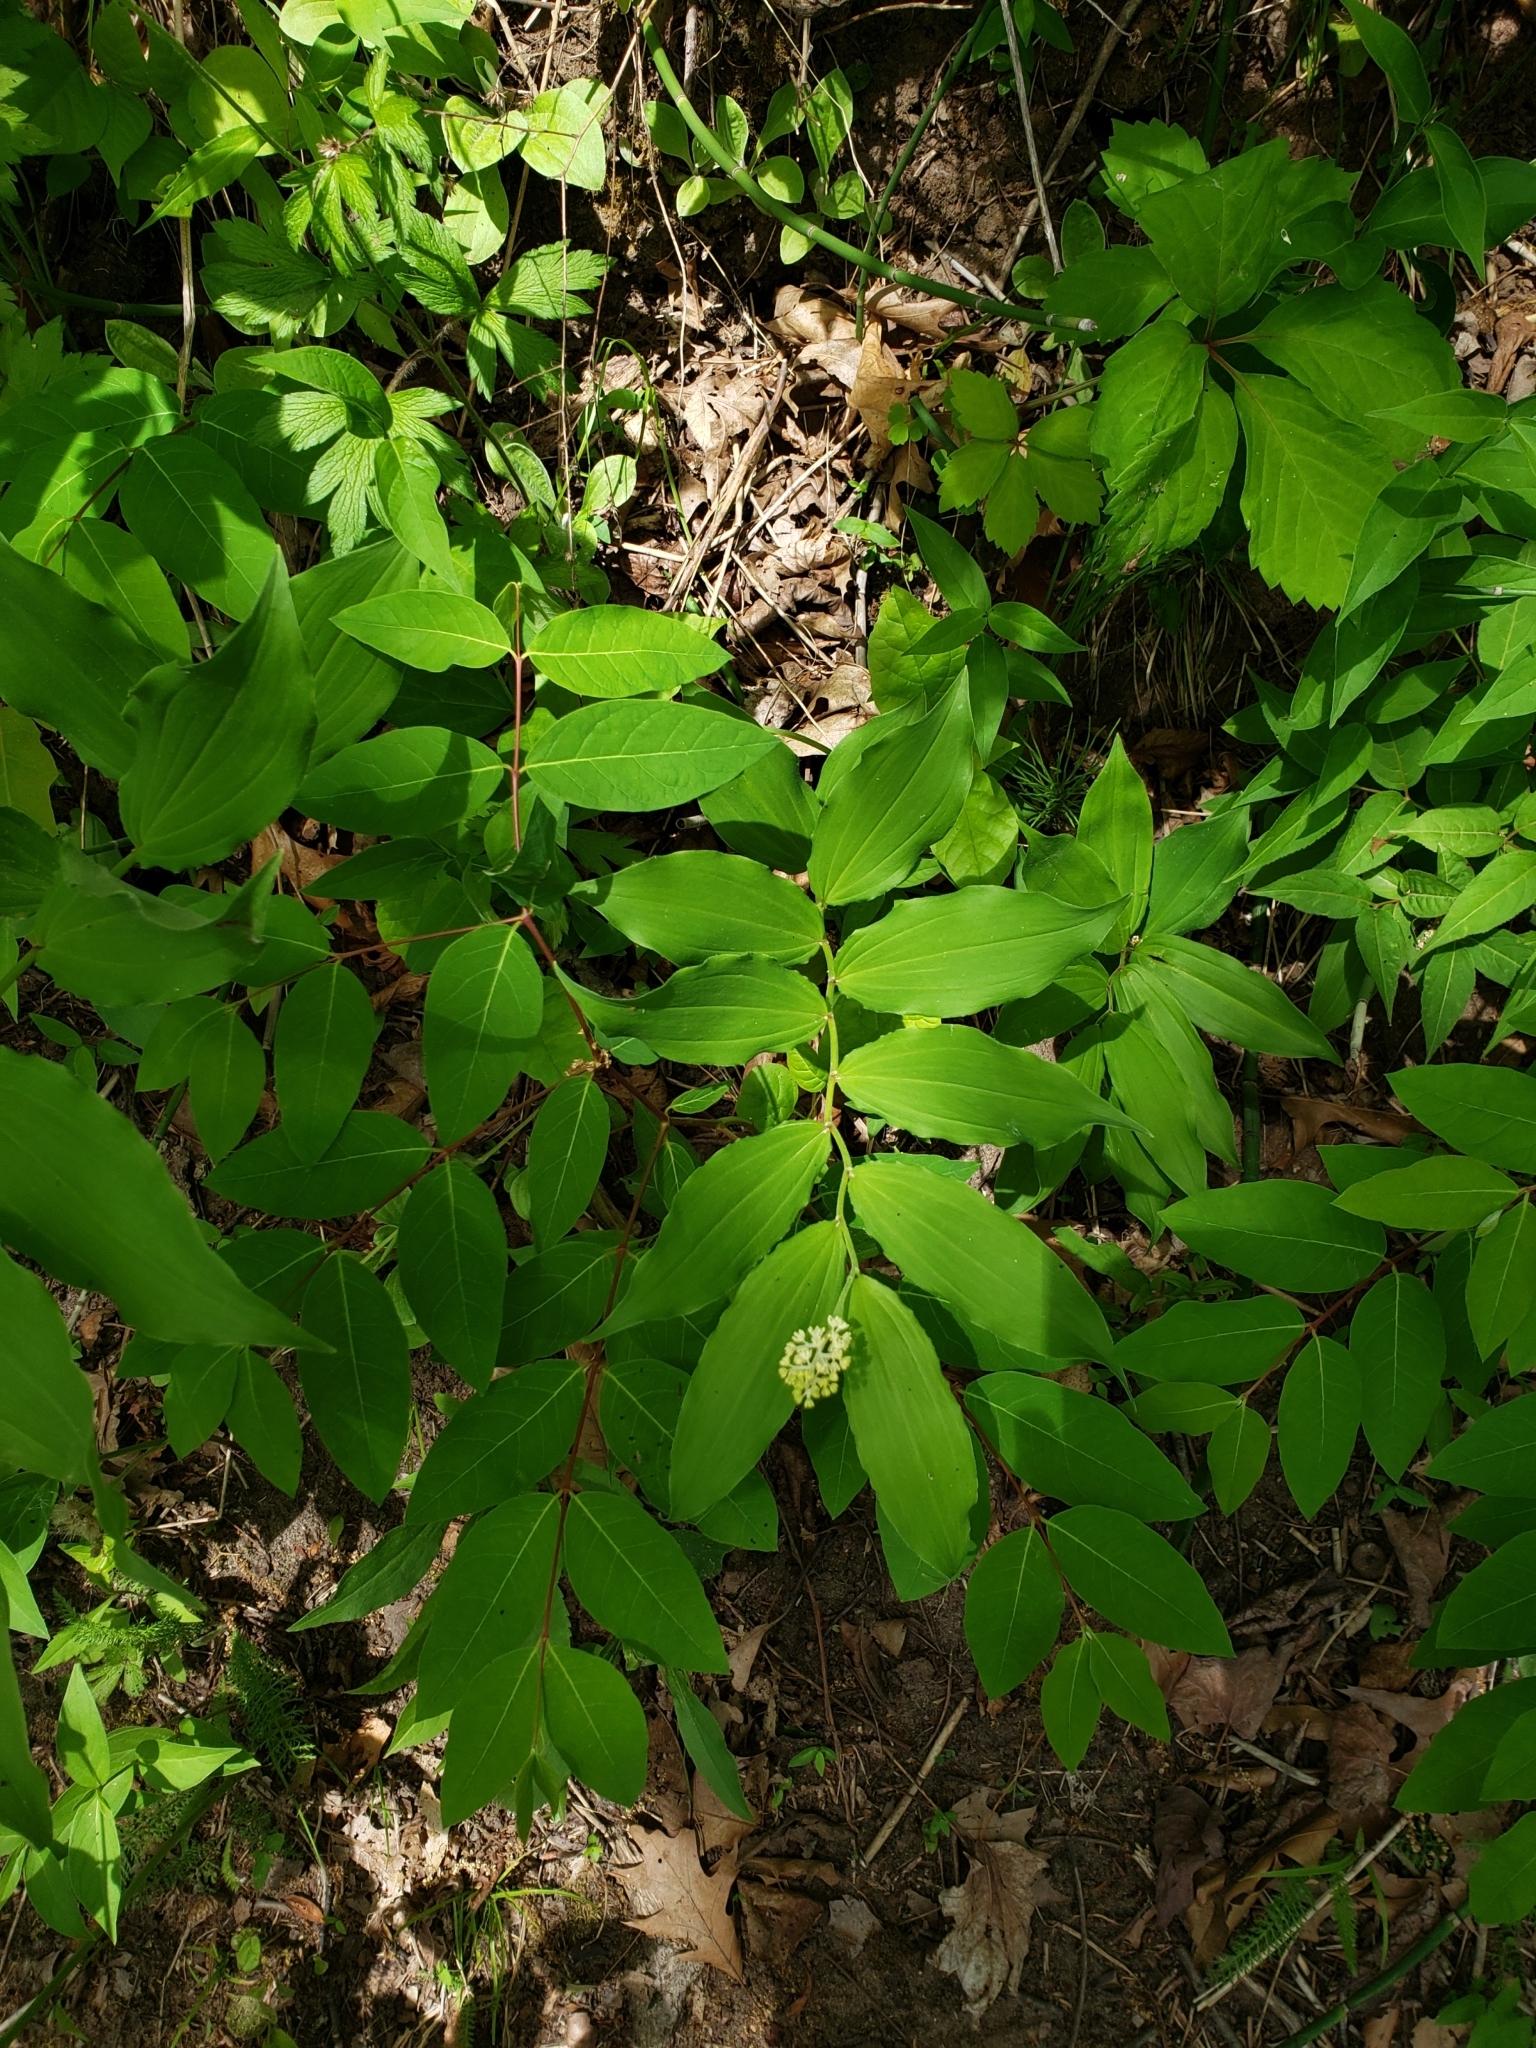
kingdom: Plantae
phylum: Tracheophyta
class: Liliopsida
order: Asparagales
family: Asparagaceae
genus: Maianthemum
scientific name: Maianthemum racemosum
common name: False spikenard
